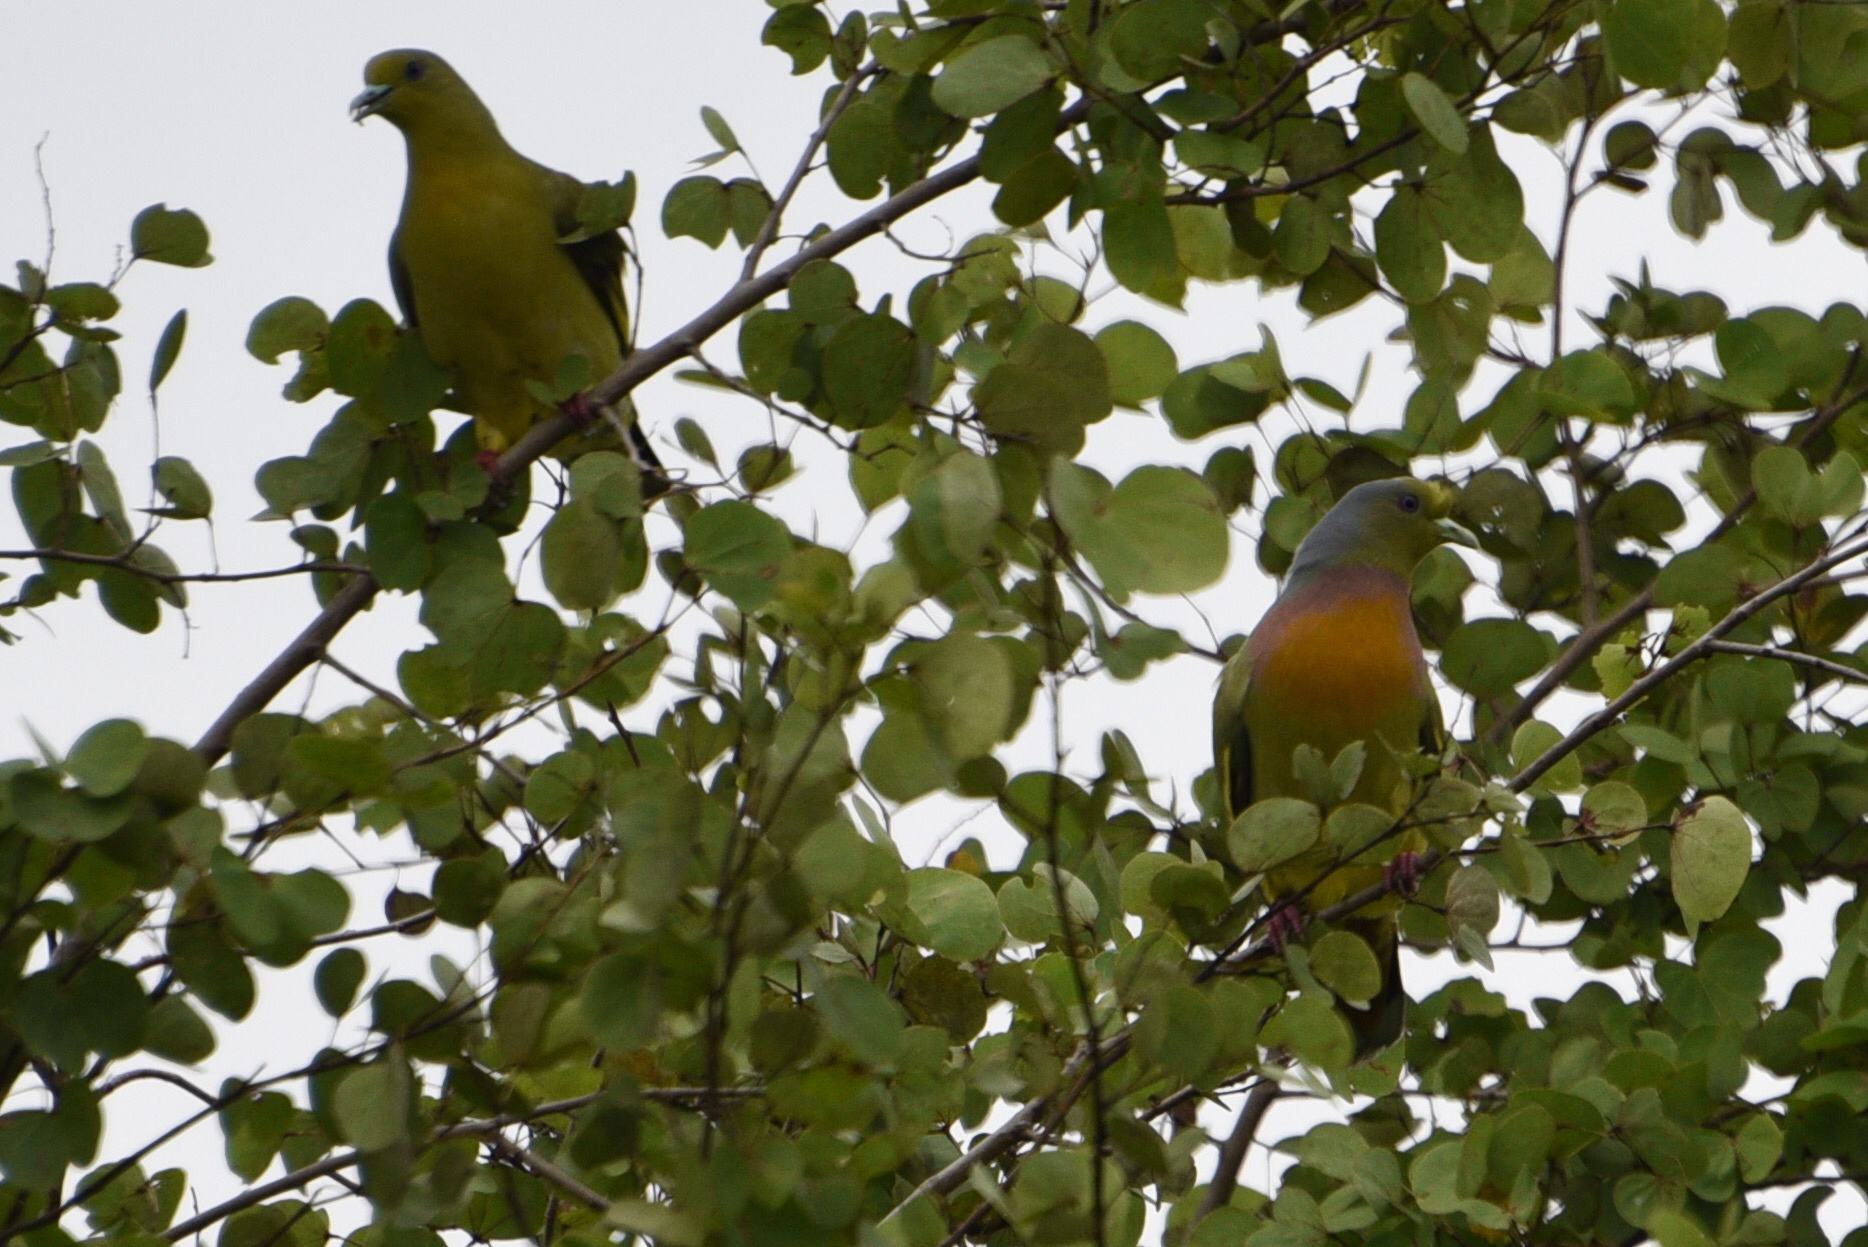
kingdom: Animalia
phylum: Chordata
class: Aves
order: Columbiformes
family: Columbidae
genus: Treron
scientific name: Treron bicinctus
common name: Orange-breasted green pigeon
